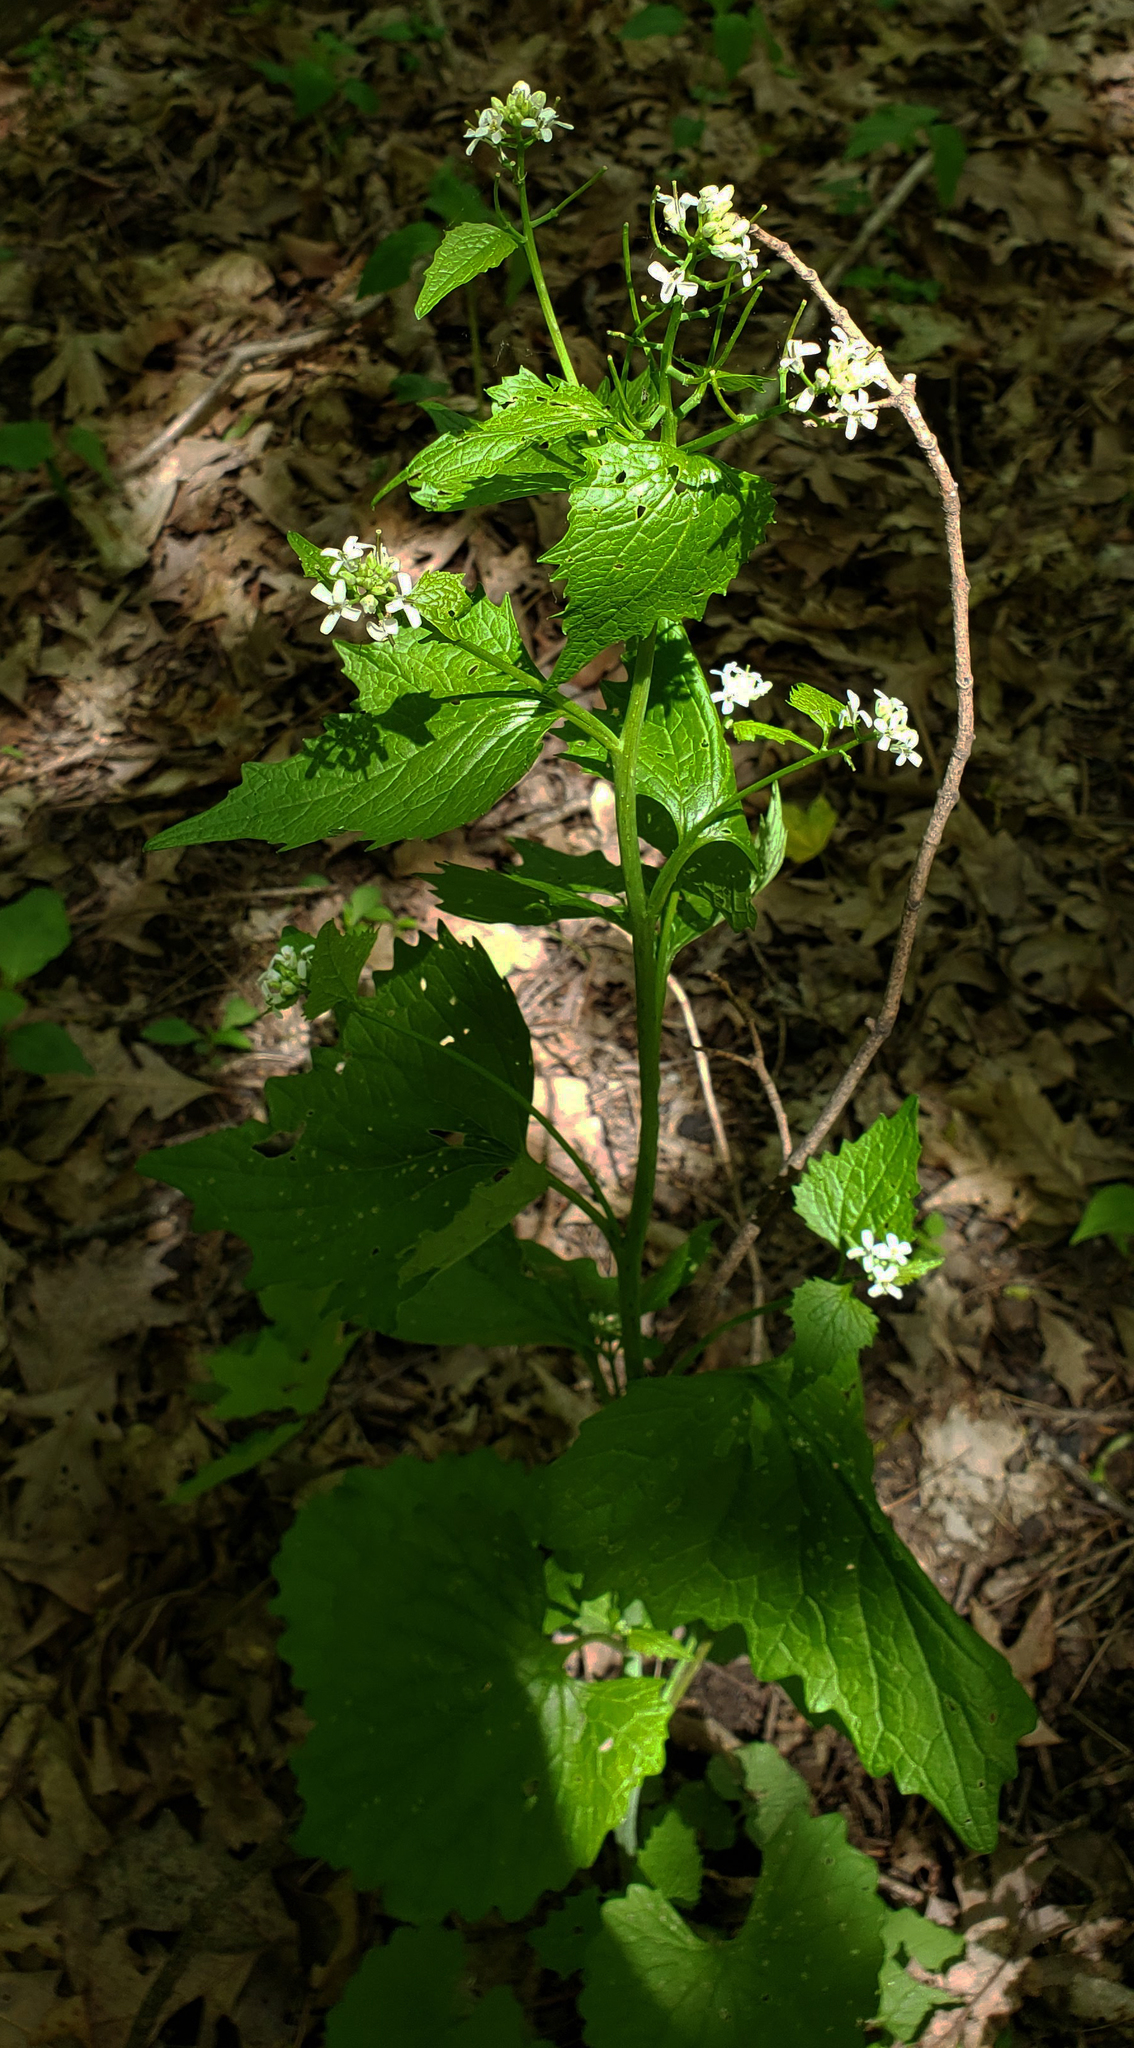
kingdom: Plantae
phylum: Tracheophyta
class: Magnoliopsida
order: Brassicales
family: Brassicaceae
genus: Alliaria
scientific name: Alliaria petiolata
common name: Garlic mustard
